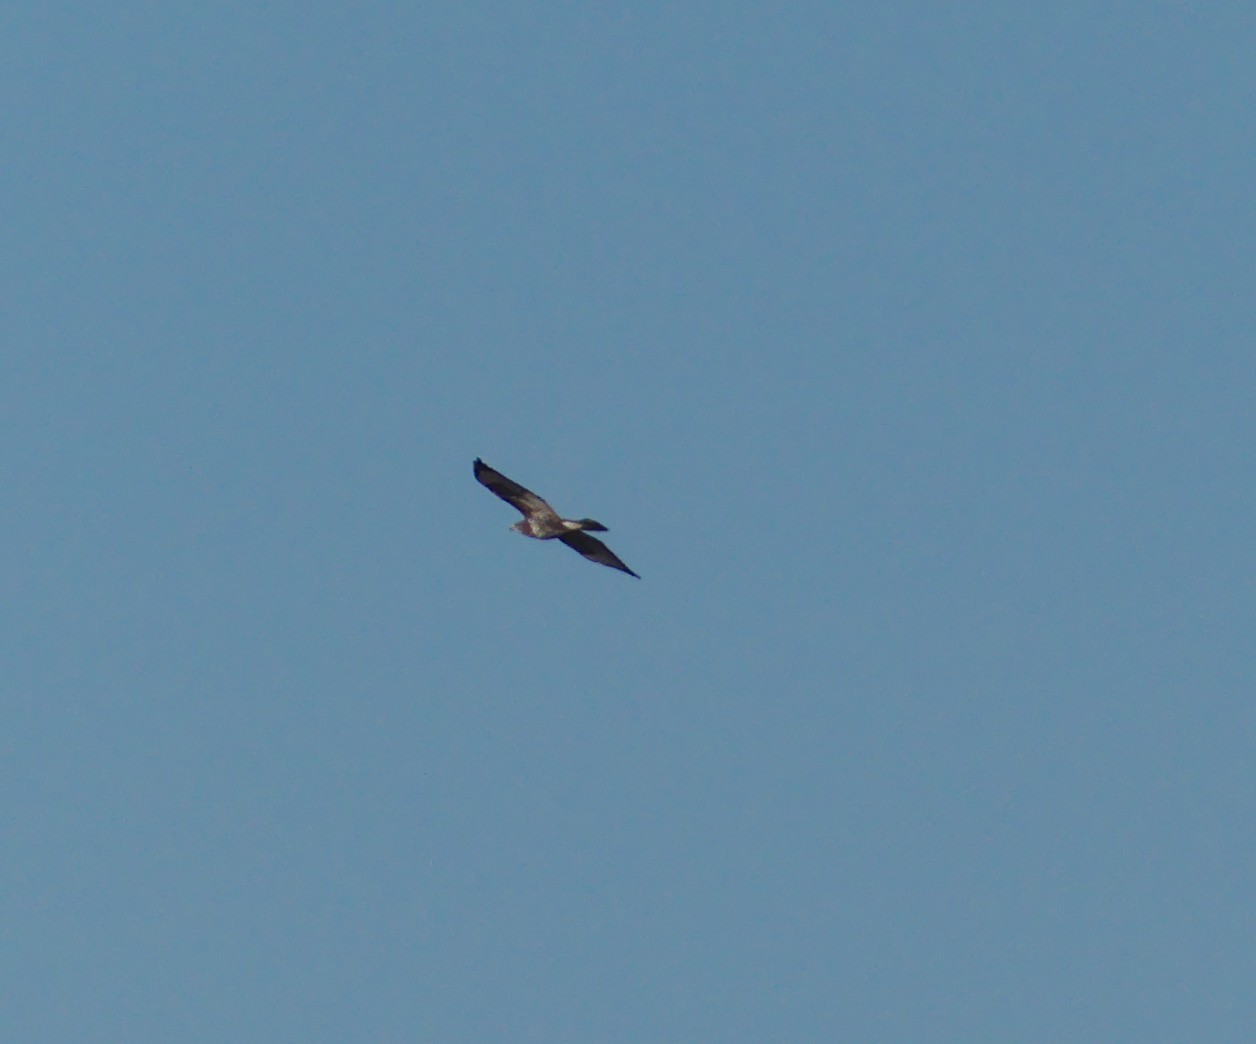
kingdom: Animalia
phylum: Chordata
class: Aves
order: Accipitriformes
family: Accipitridae
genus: Buteo
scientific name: Buteo buteo
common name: Common buzzard
